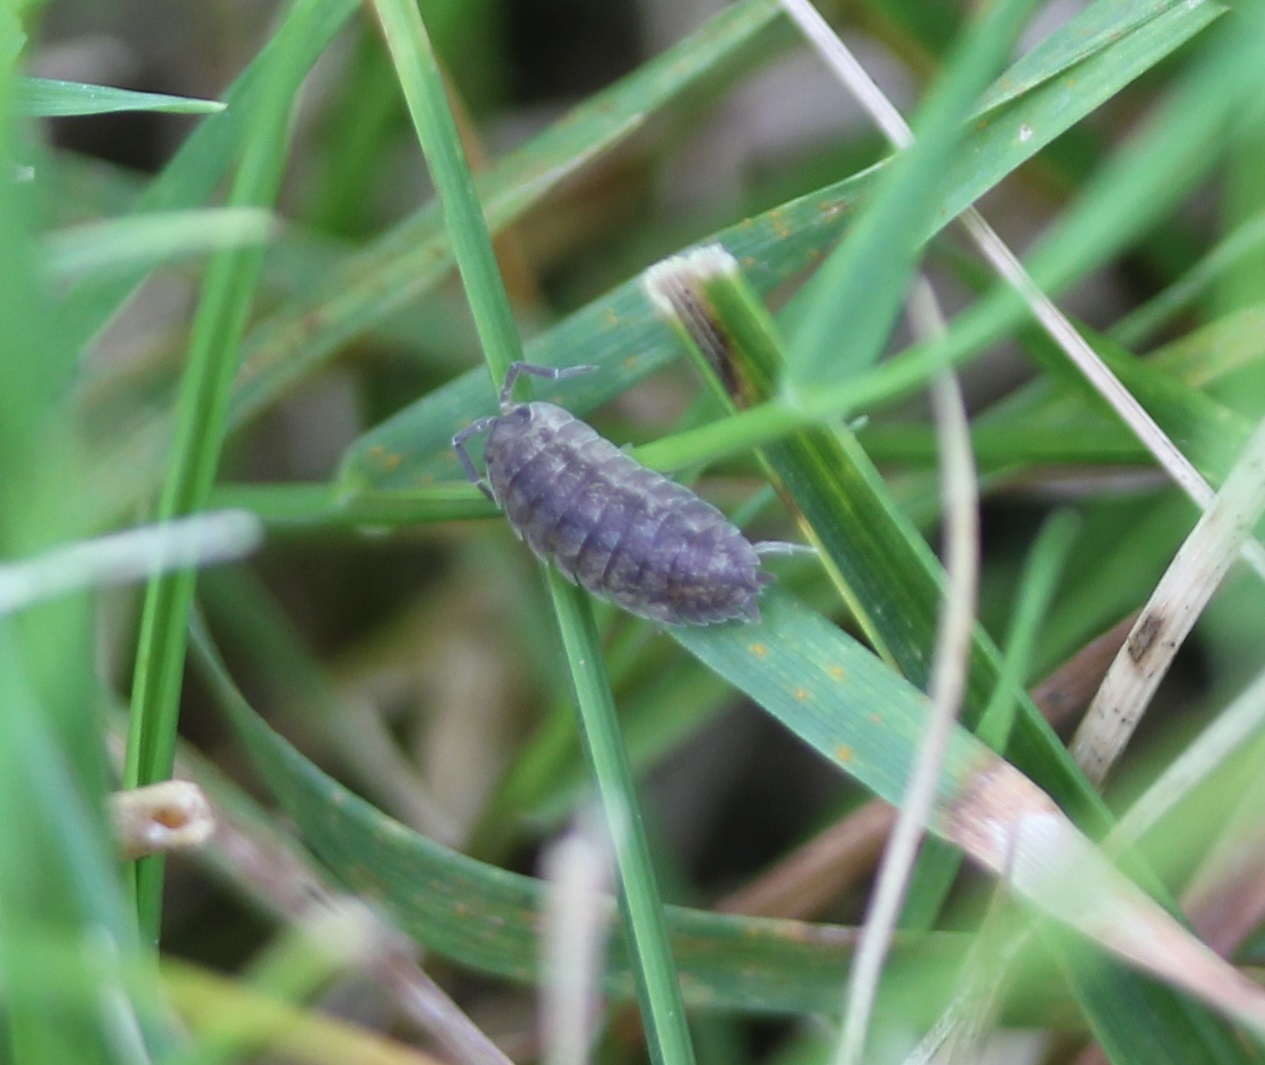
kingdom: Animalia
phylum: Arthropoda
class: Malacostraca
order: Isopoda
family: Porcellionidae
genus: Porcellio
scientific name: Porcellio scaber
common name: Common rough woodlouse
